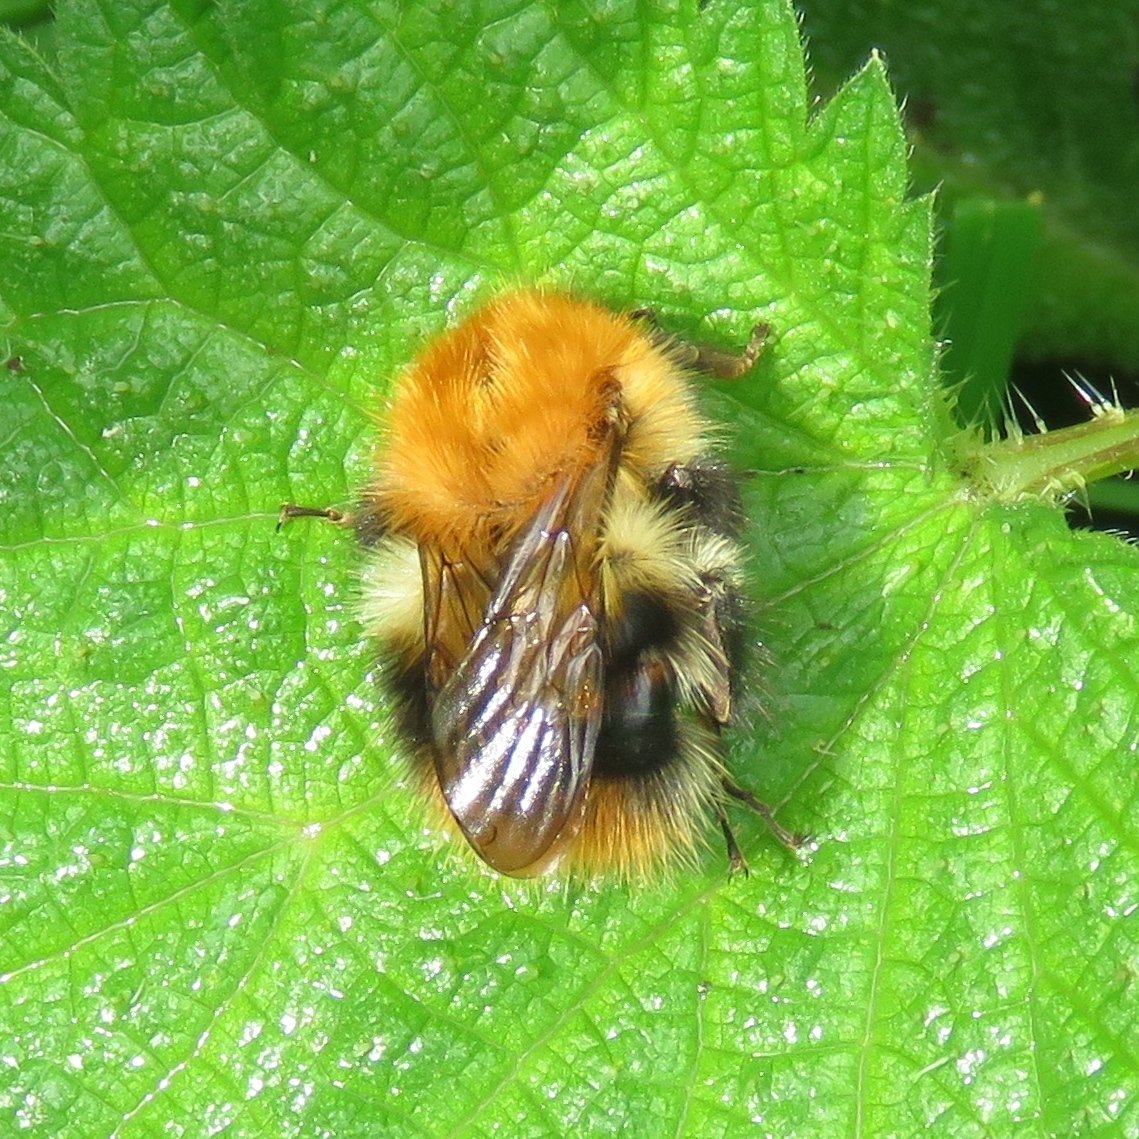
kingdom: Animalia
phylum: Arthropoda
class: Insecta
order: Hymenoptera
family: Apidae
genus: Bombus
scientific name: Bombus pascuorum
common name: Common carder bee
